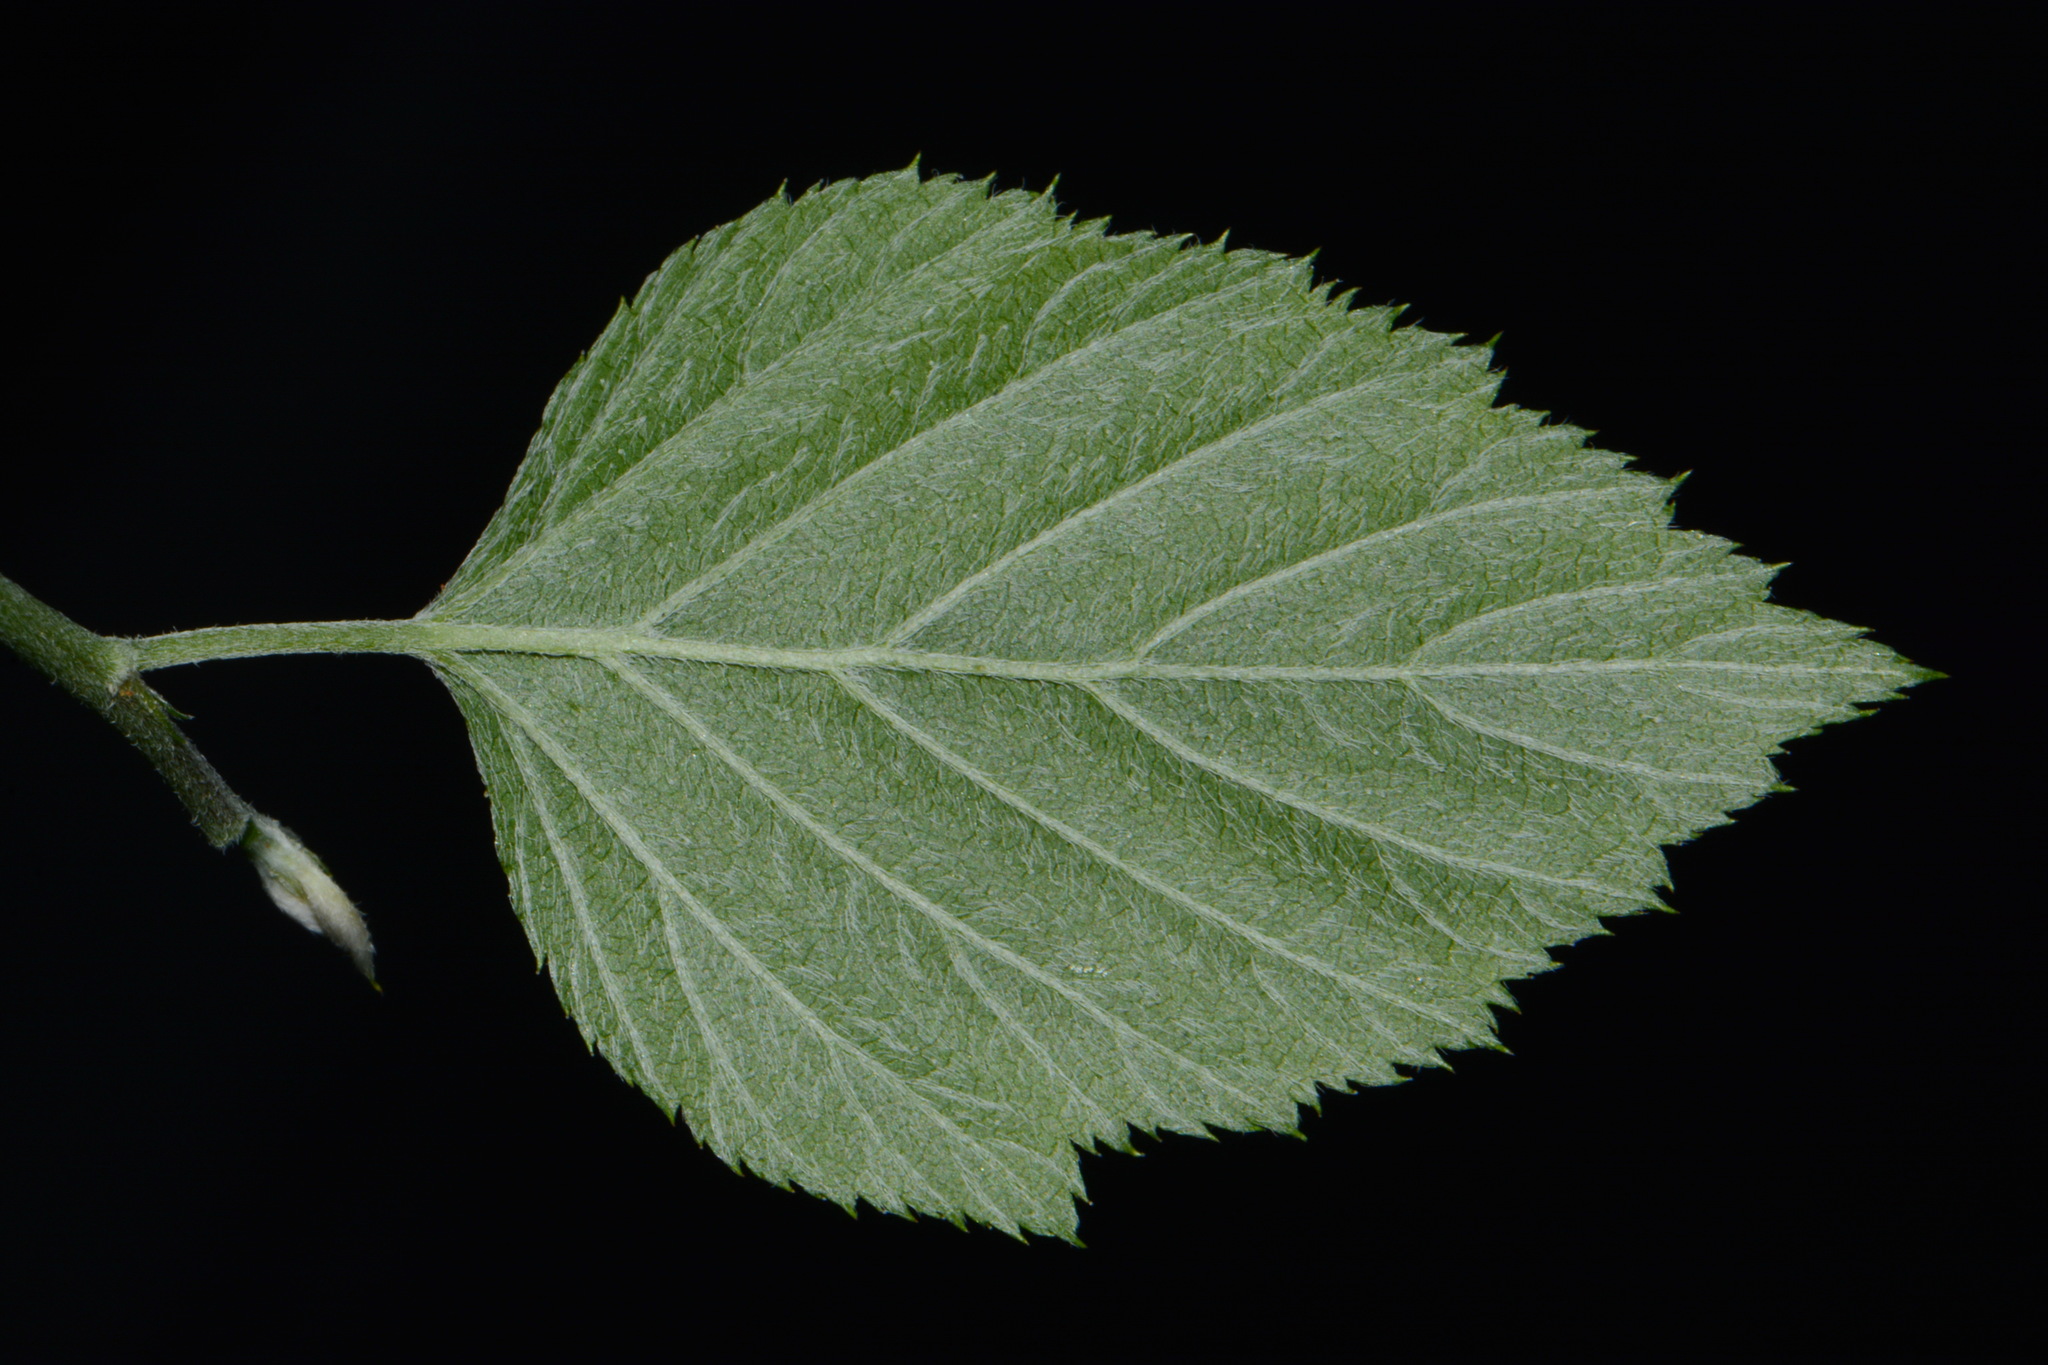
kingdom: Plantae
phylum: Tracheophyta
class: Magnoliopsida
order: Rosales
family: Rosaceae
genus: Neviusia
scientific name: Neviusia alabamensis
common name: Snow-wreath
